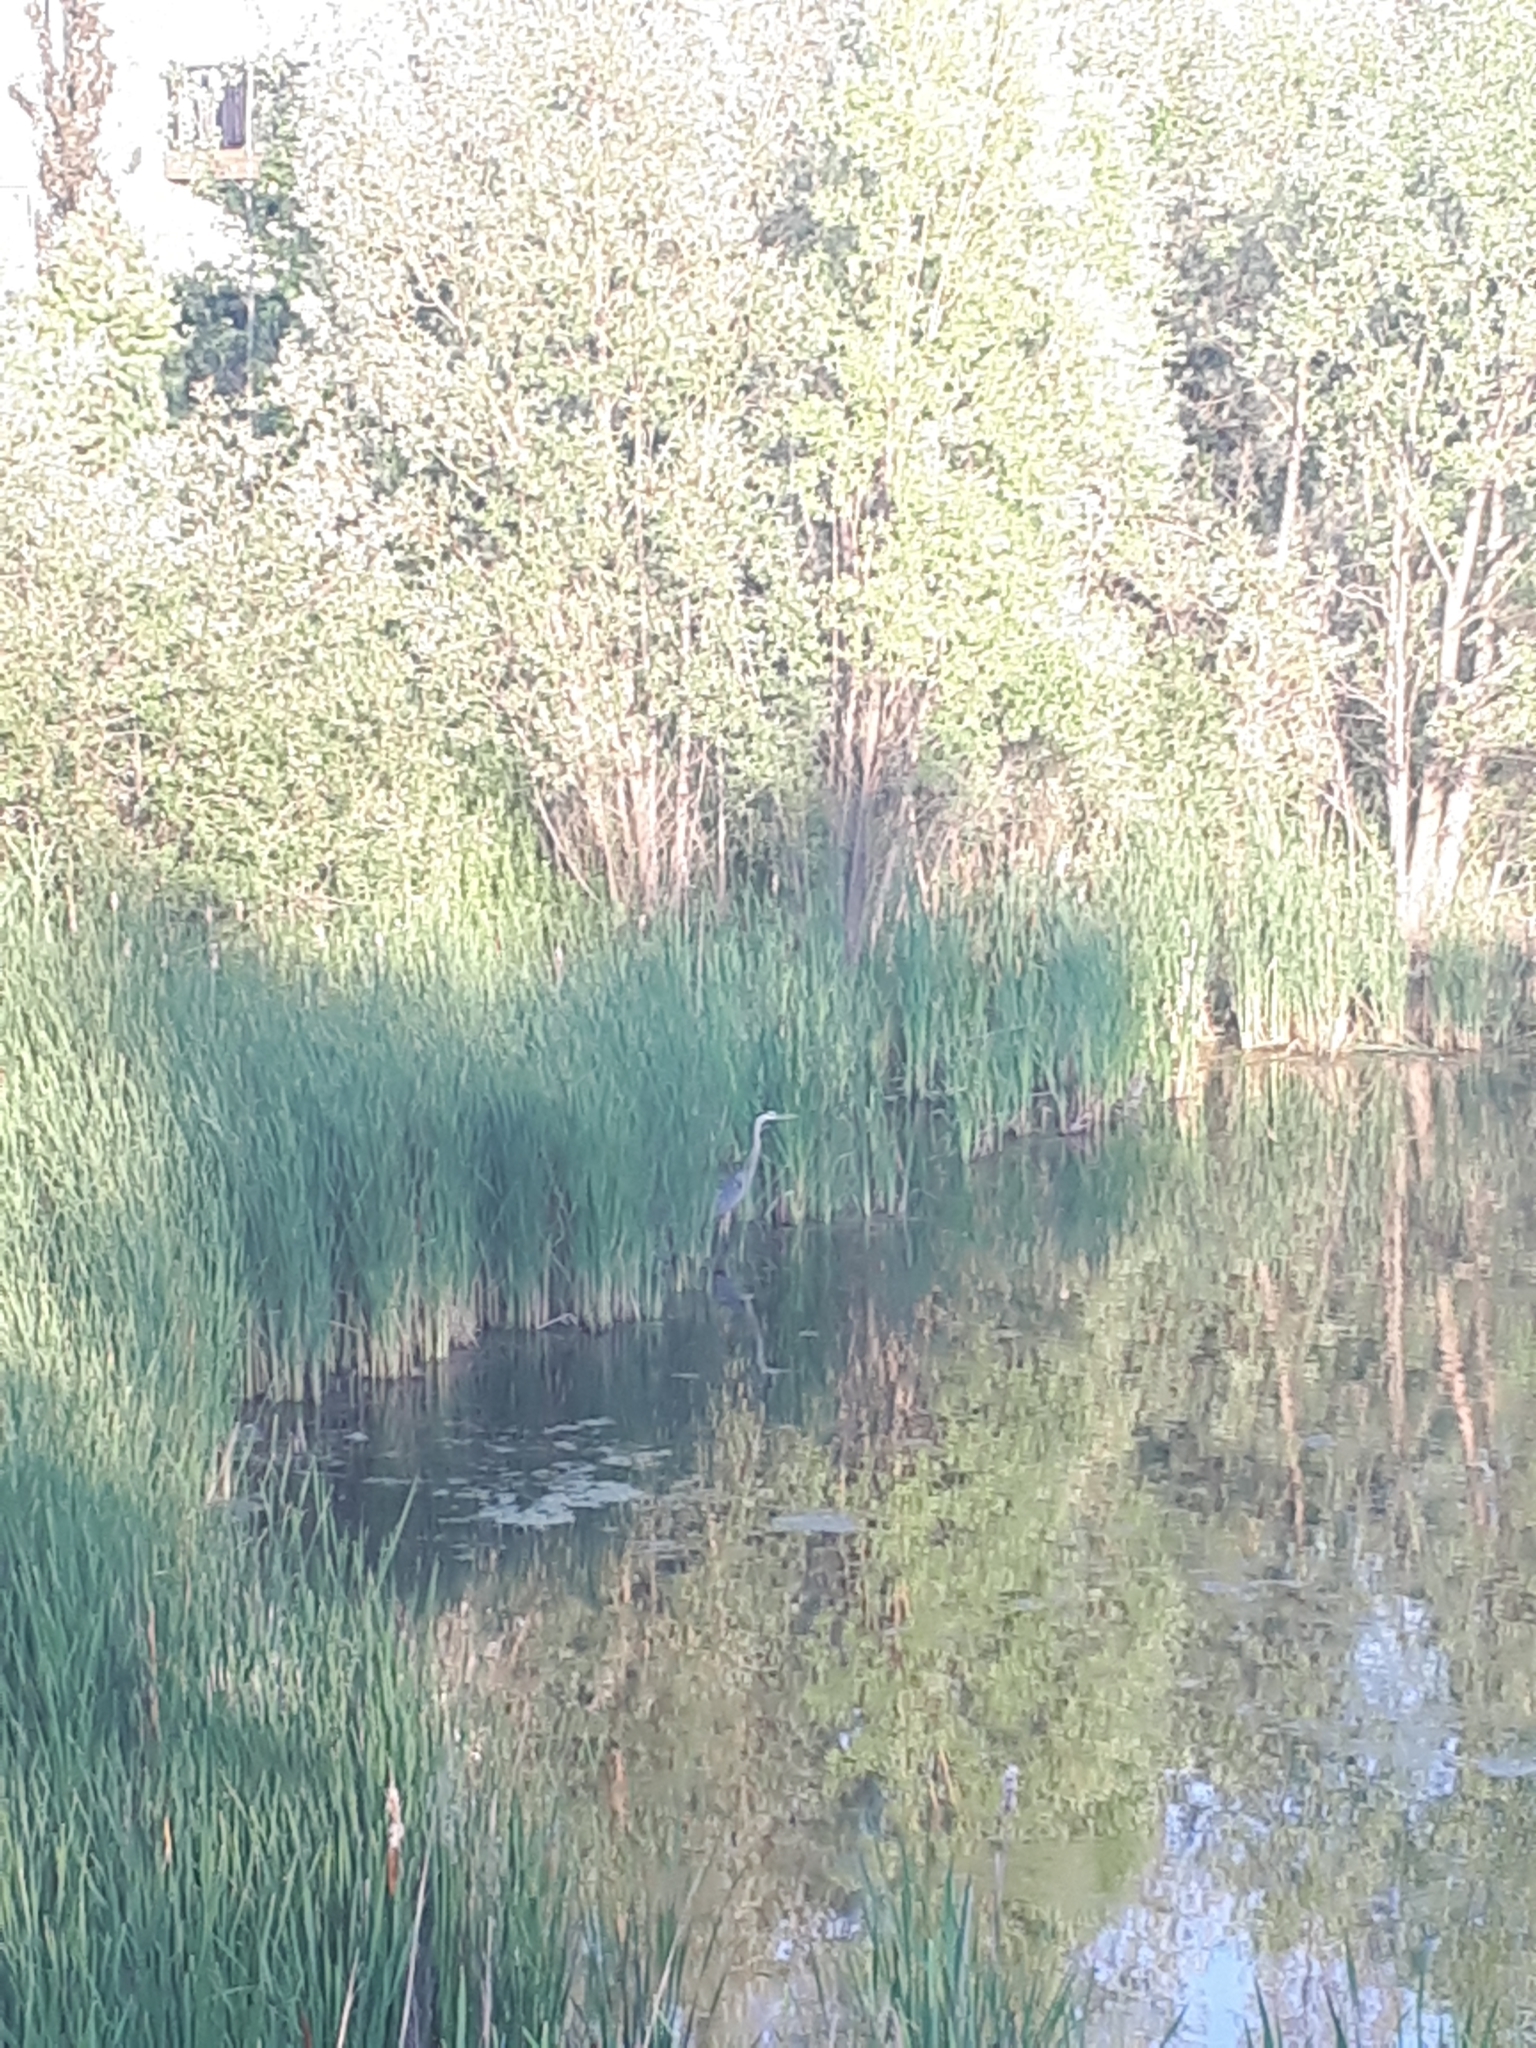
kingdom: Animalia
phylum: Chordata
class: Aves
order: Pelecaniformes
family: Ardeidae
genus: Ardea
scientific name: Ardea herodias
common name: Great blue heron
